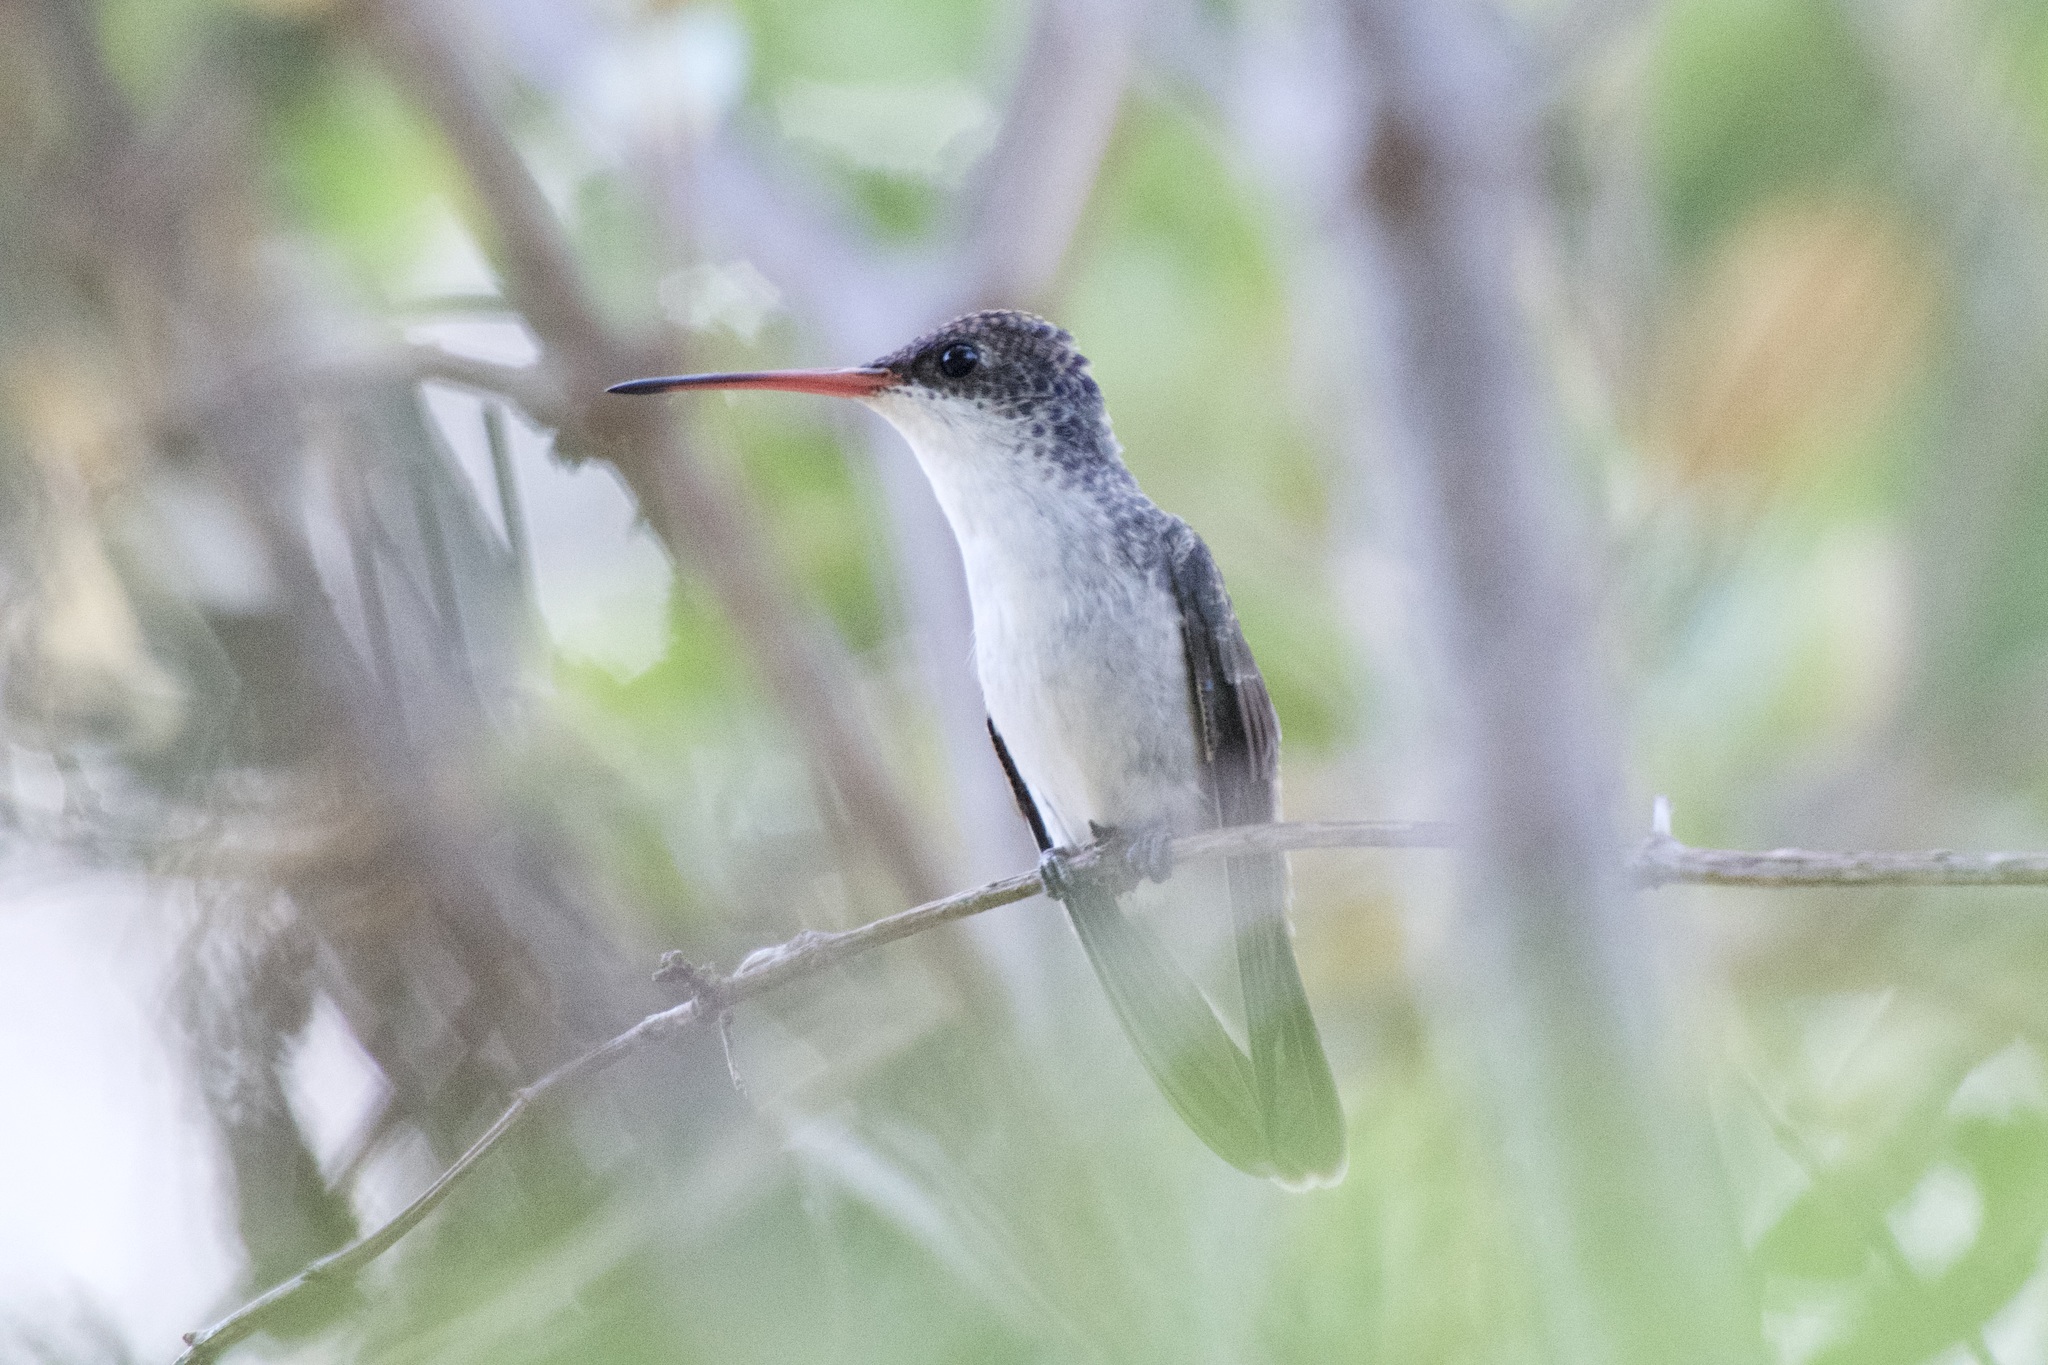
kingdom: Animalia
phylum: Chordata
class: Aves
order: Apodiformes
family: Trochilidae
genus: Leucolia
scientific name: Leucolia violiceps
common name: Violet-crowned hummingbird
